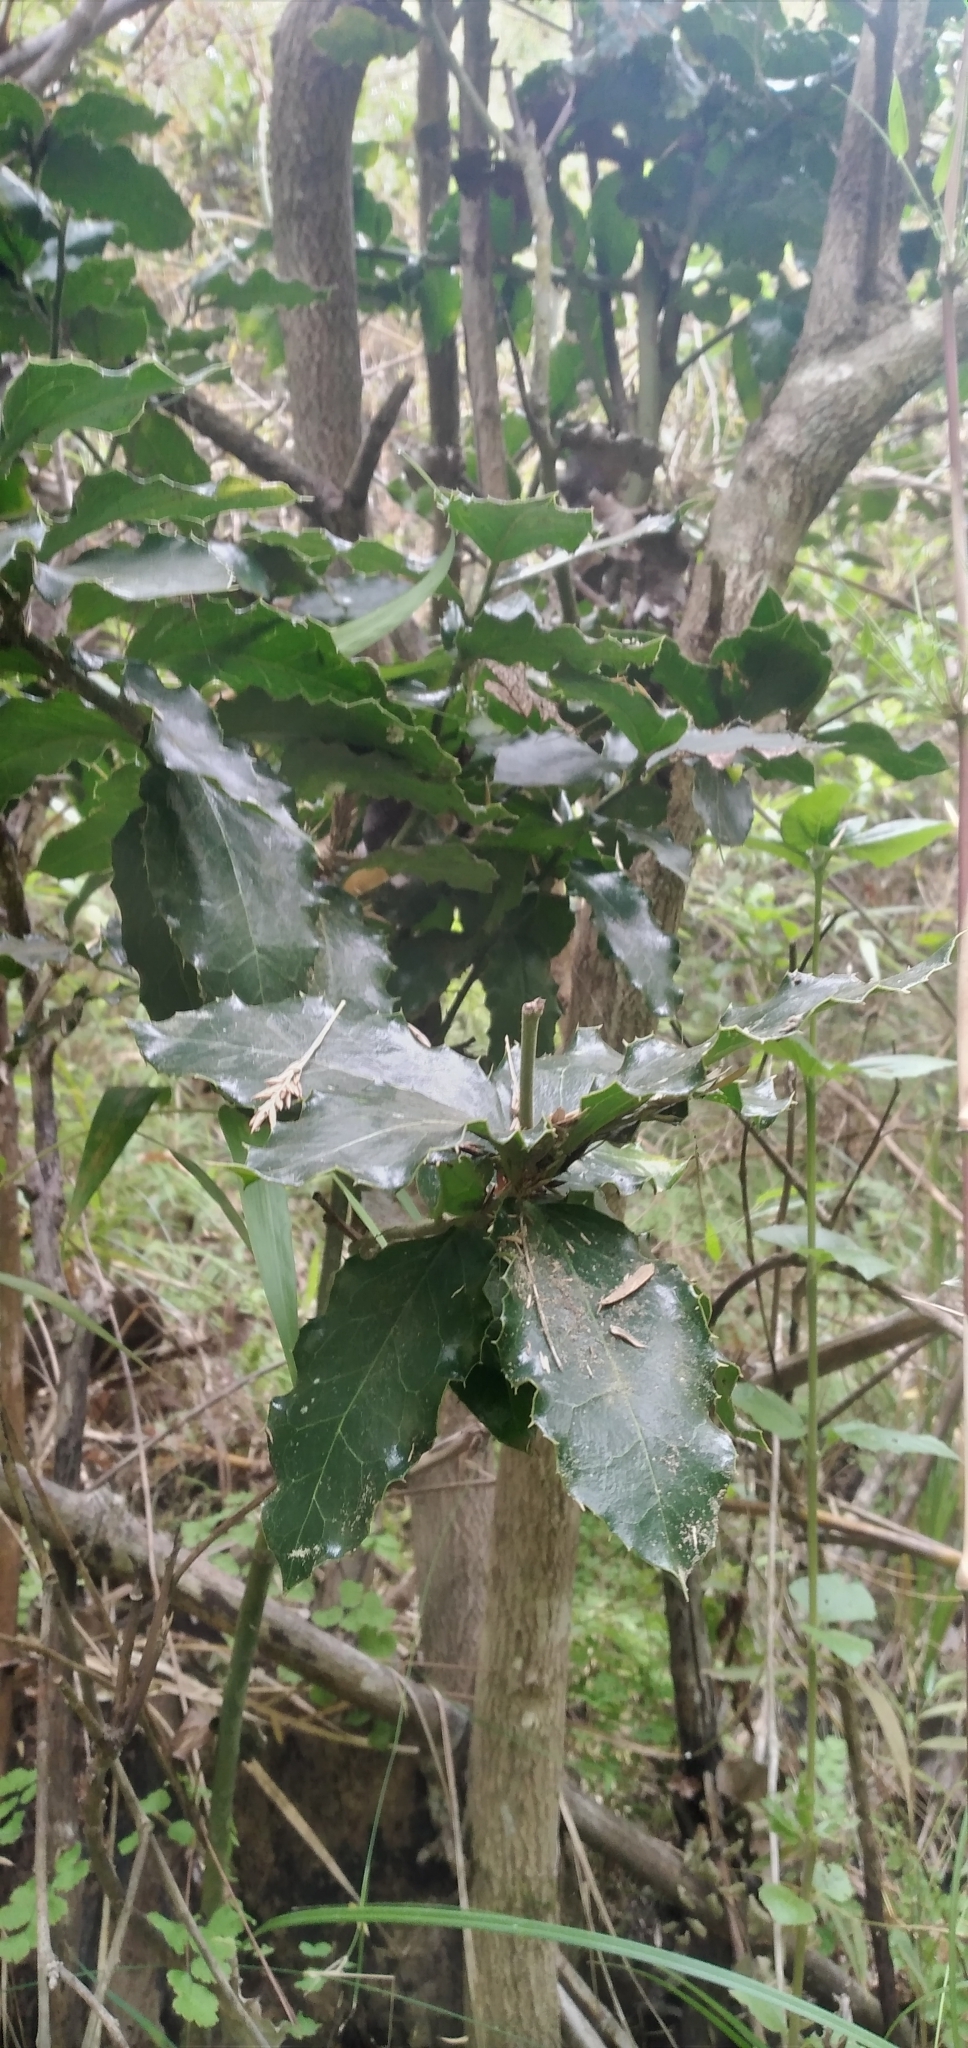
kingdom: Plantae
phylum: Tracheophyta
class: Magnoliopsida
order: Cardiopteridales
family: Cardiopteridaceae
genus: Citronella
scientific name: Citronella mucronata
